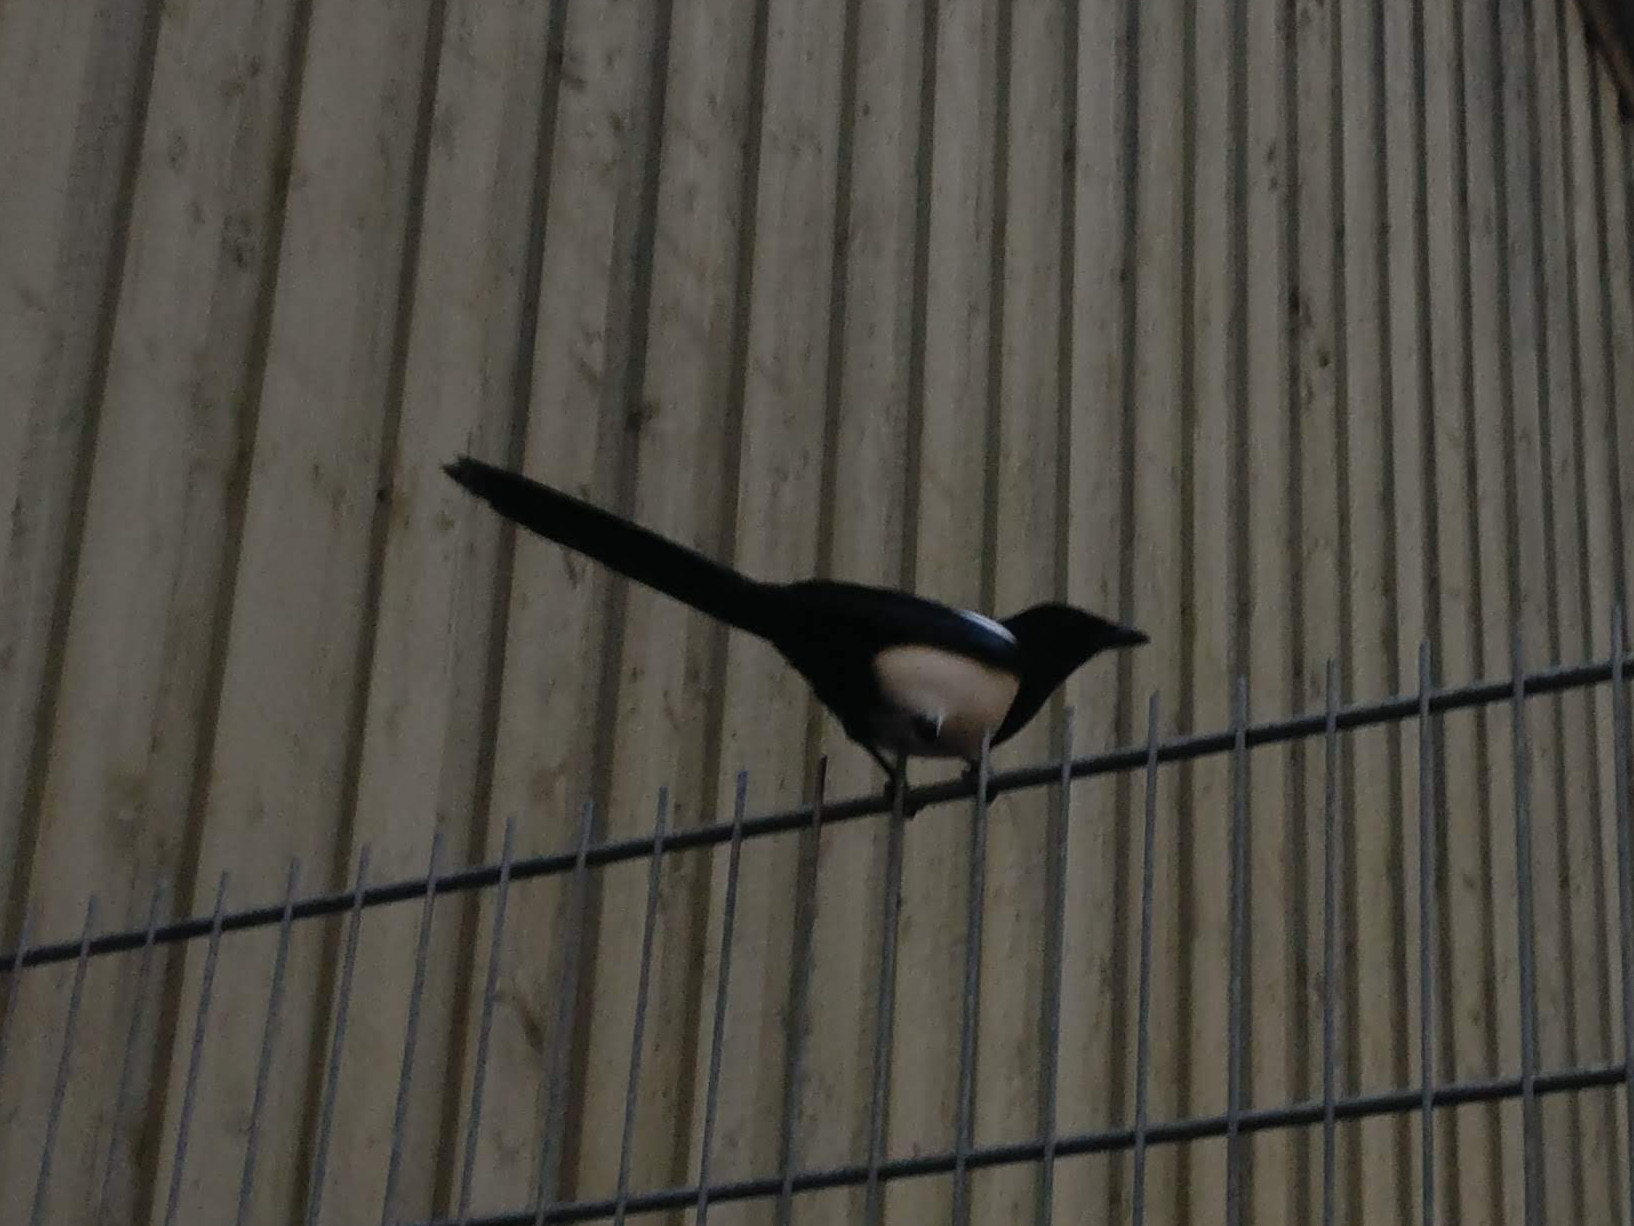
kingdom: Animalia
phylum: Chordata
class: Aves
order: Passeriformes
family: Corvidae
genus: Pica
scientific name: Pica pica
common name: Eurasian magpie
